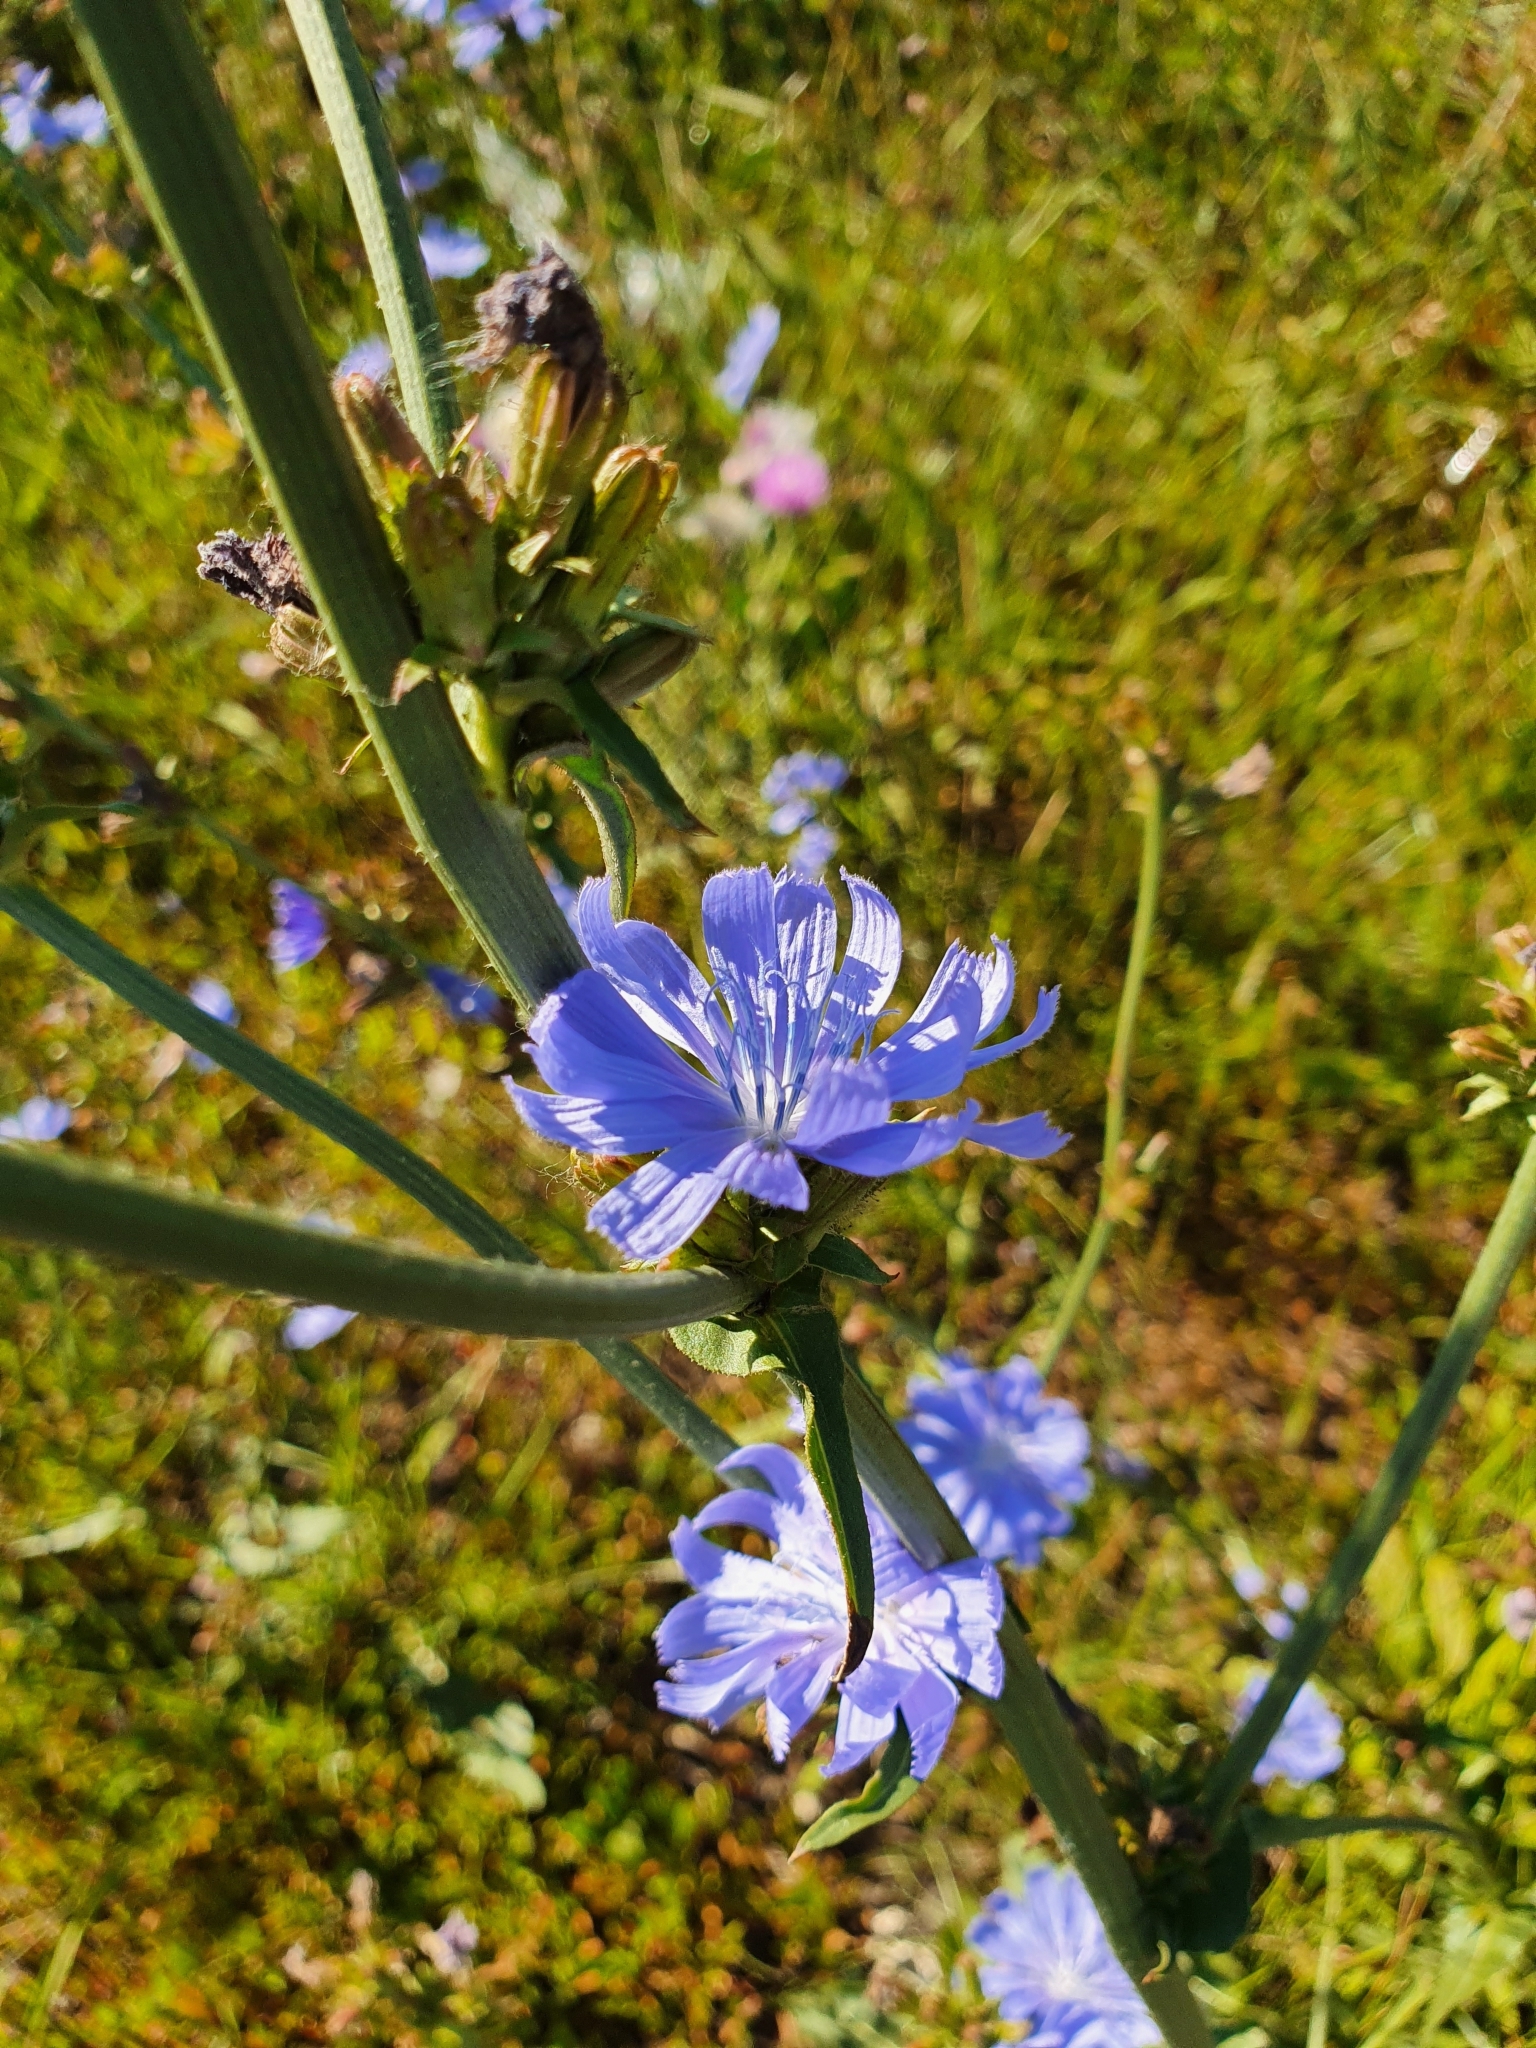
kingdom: Plantae
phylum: Tracheophyta
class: Magnoliopsida
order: Asterales
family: Asteraceae
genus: Cichorium
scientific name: Cichorium intybus
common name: Chicory
